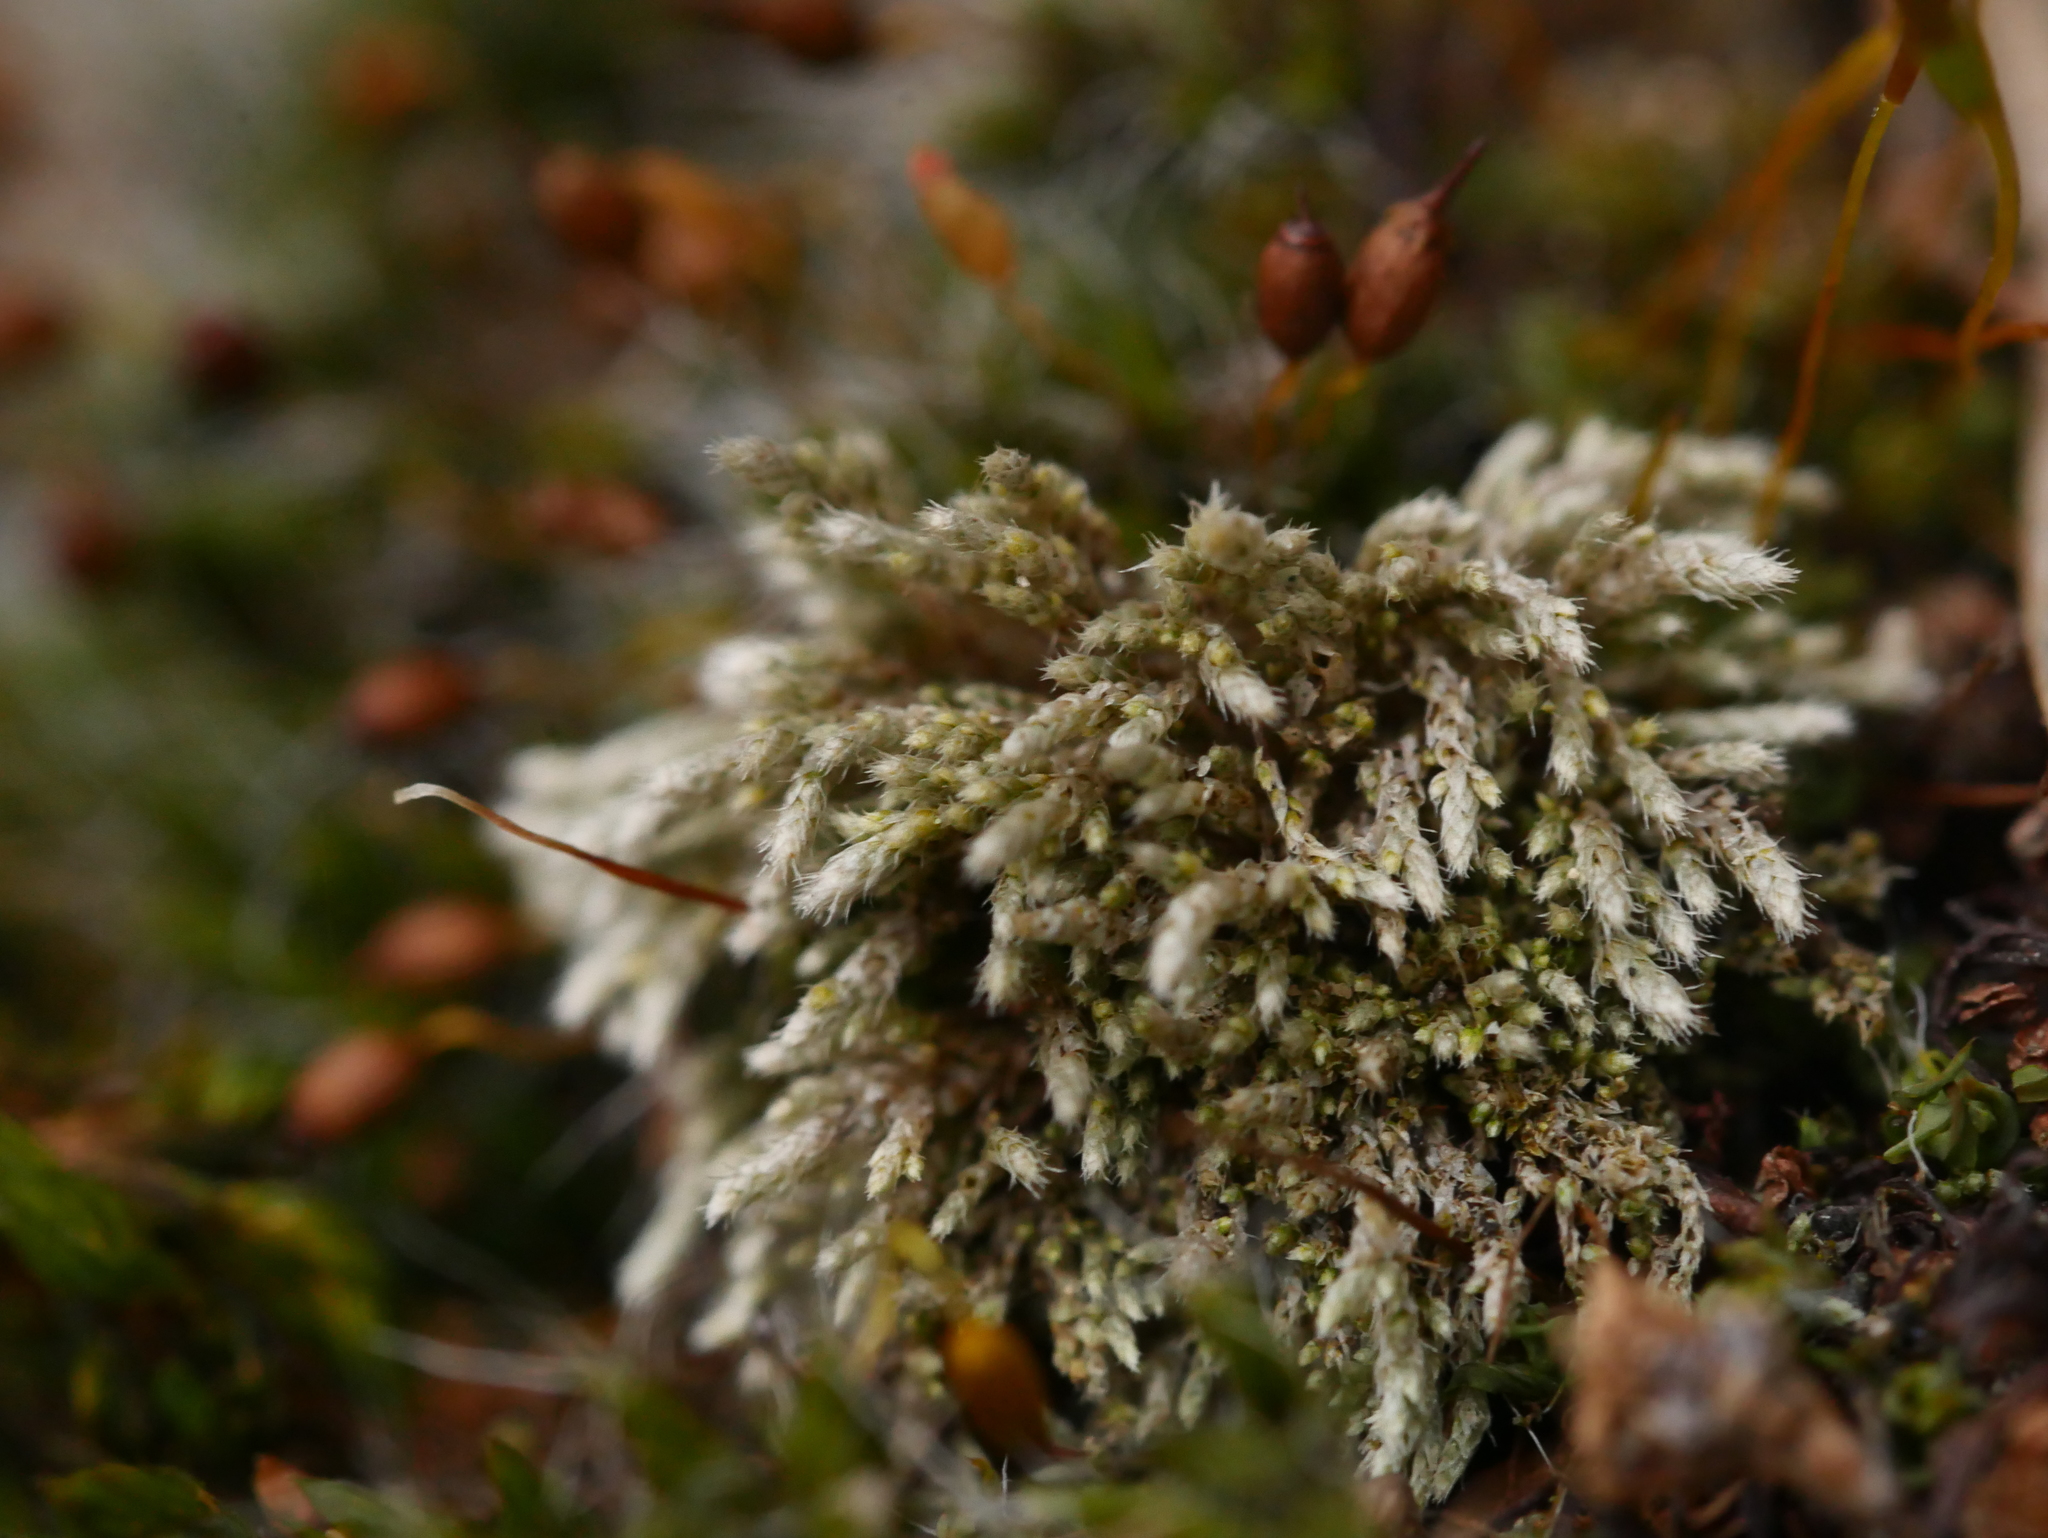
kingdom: Plantae
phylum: Bryophyta
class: Bryopsida
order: Bryales
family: Bryaceae
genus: Bryum
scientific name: Bryum argenteum
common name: Silver-moss
